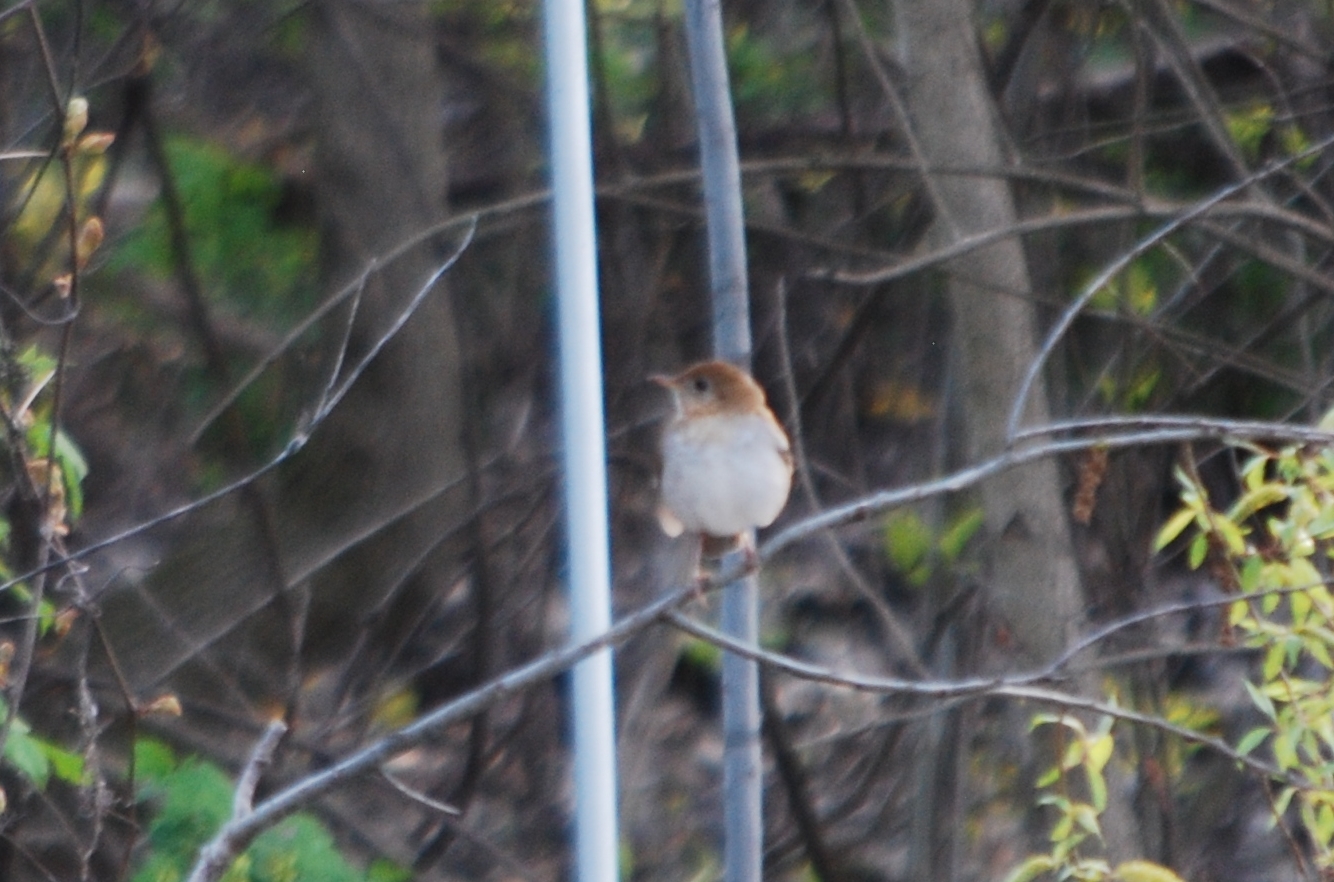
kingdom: Animalia
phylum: Chordata
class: Aves
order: Passeriformes
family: Turdidae
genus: Catharus
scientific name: Catharus fuscescens
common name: Veery
